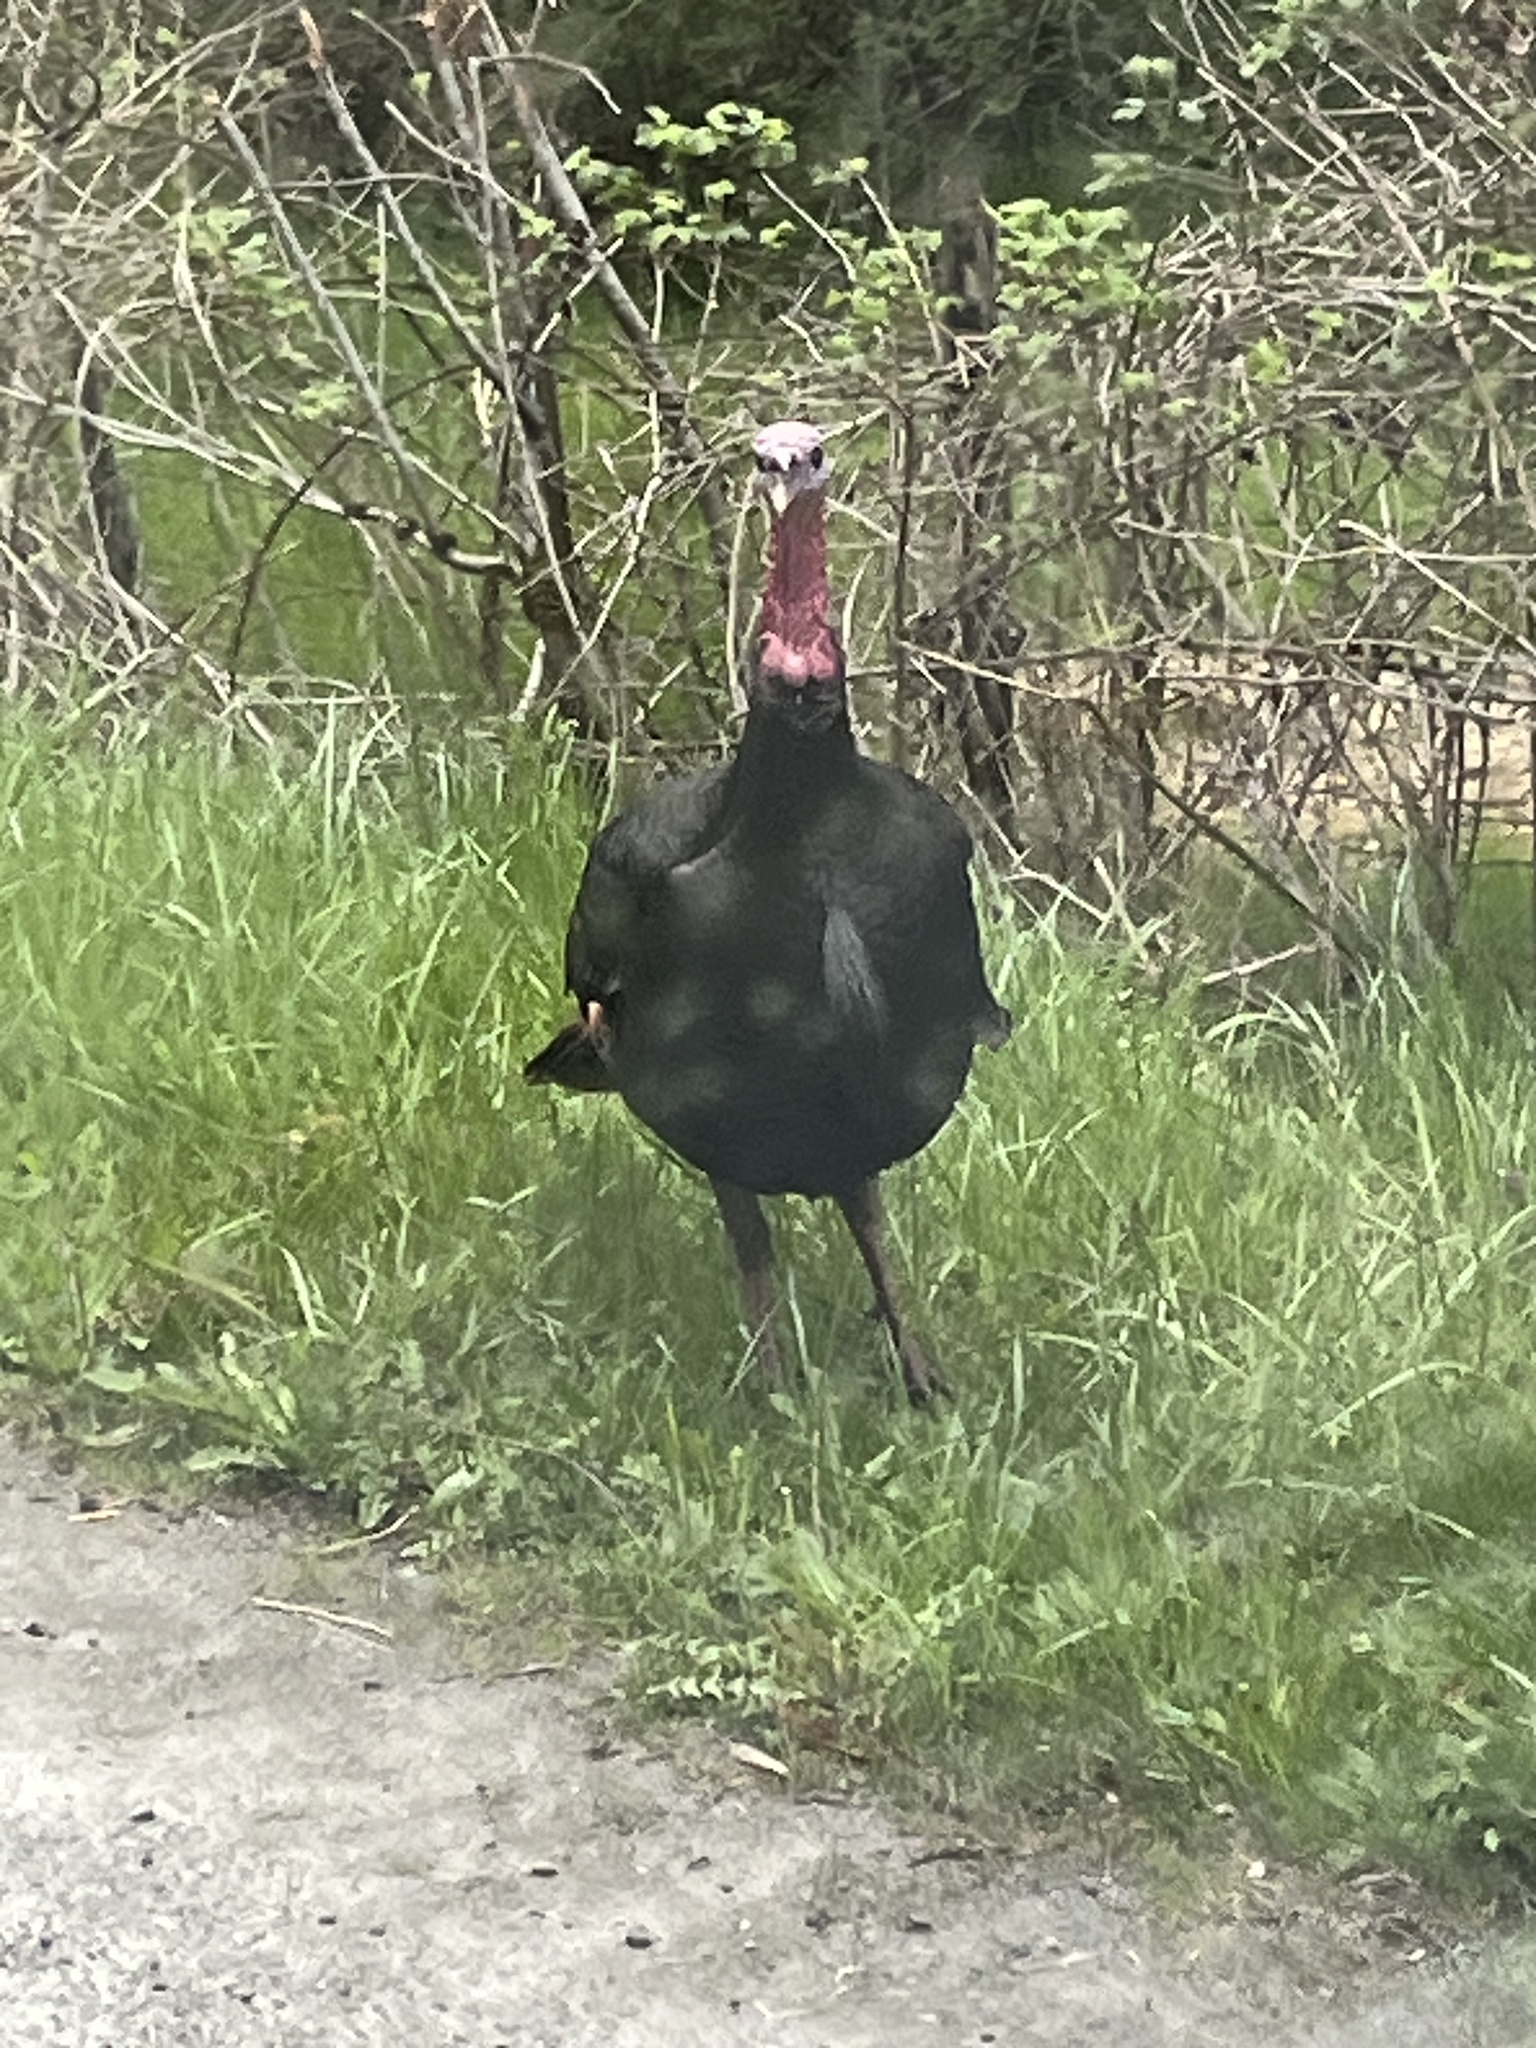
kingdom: Animalia
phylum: Chordata
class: Aves
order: Galliformes
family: Phasianidae
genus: Meleagris
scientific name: Meleagris gallopavo
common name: Wild turkey
